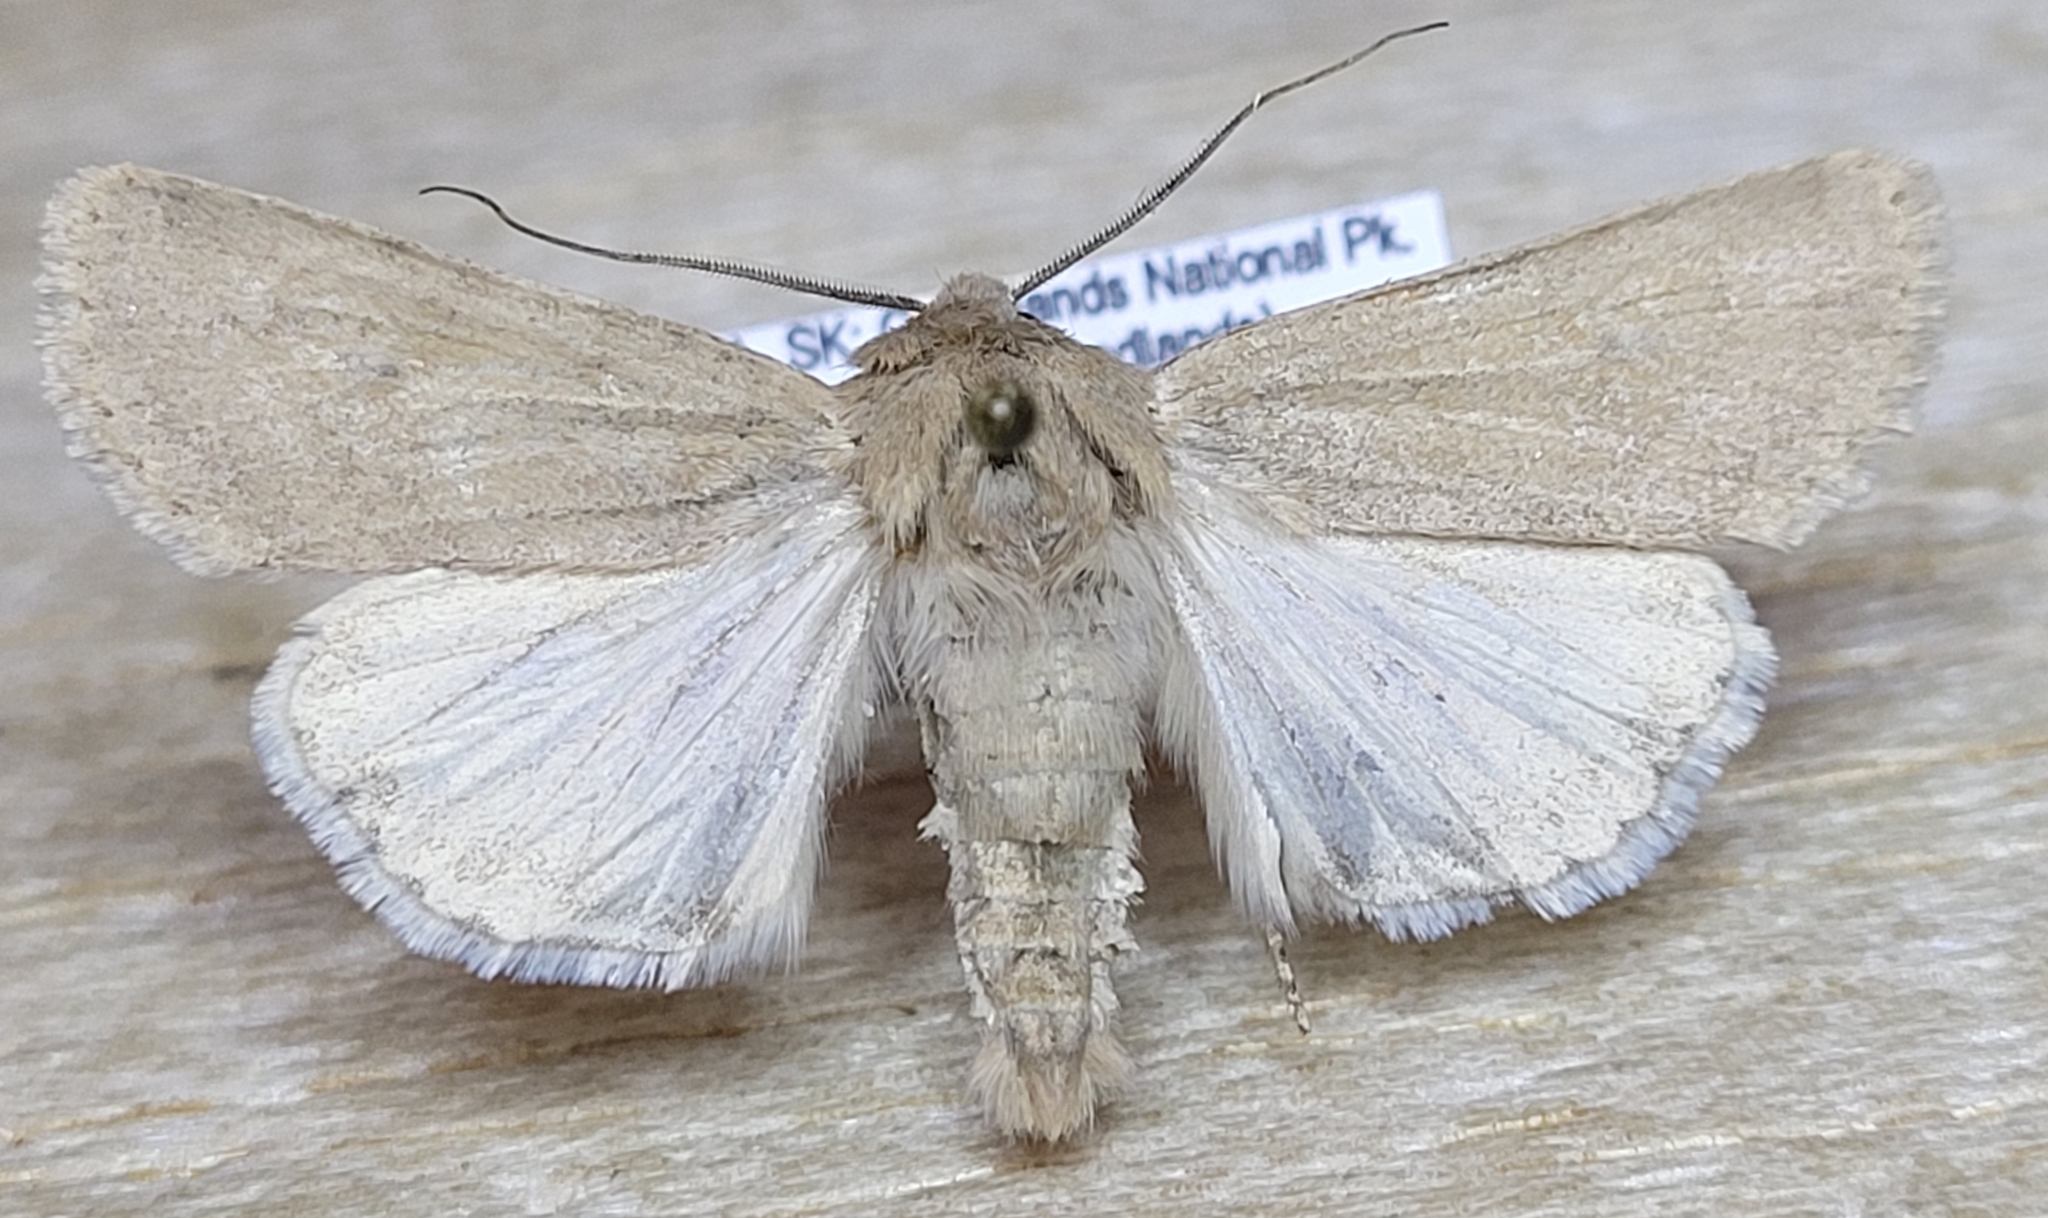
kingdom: Animalia
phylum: Arthropoda
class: Insecta
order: Lepidoptera
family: Noctuidae
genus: Euxoa
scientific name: Euxoa aequalis
